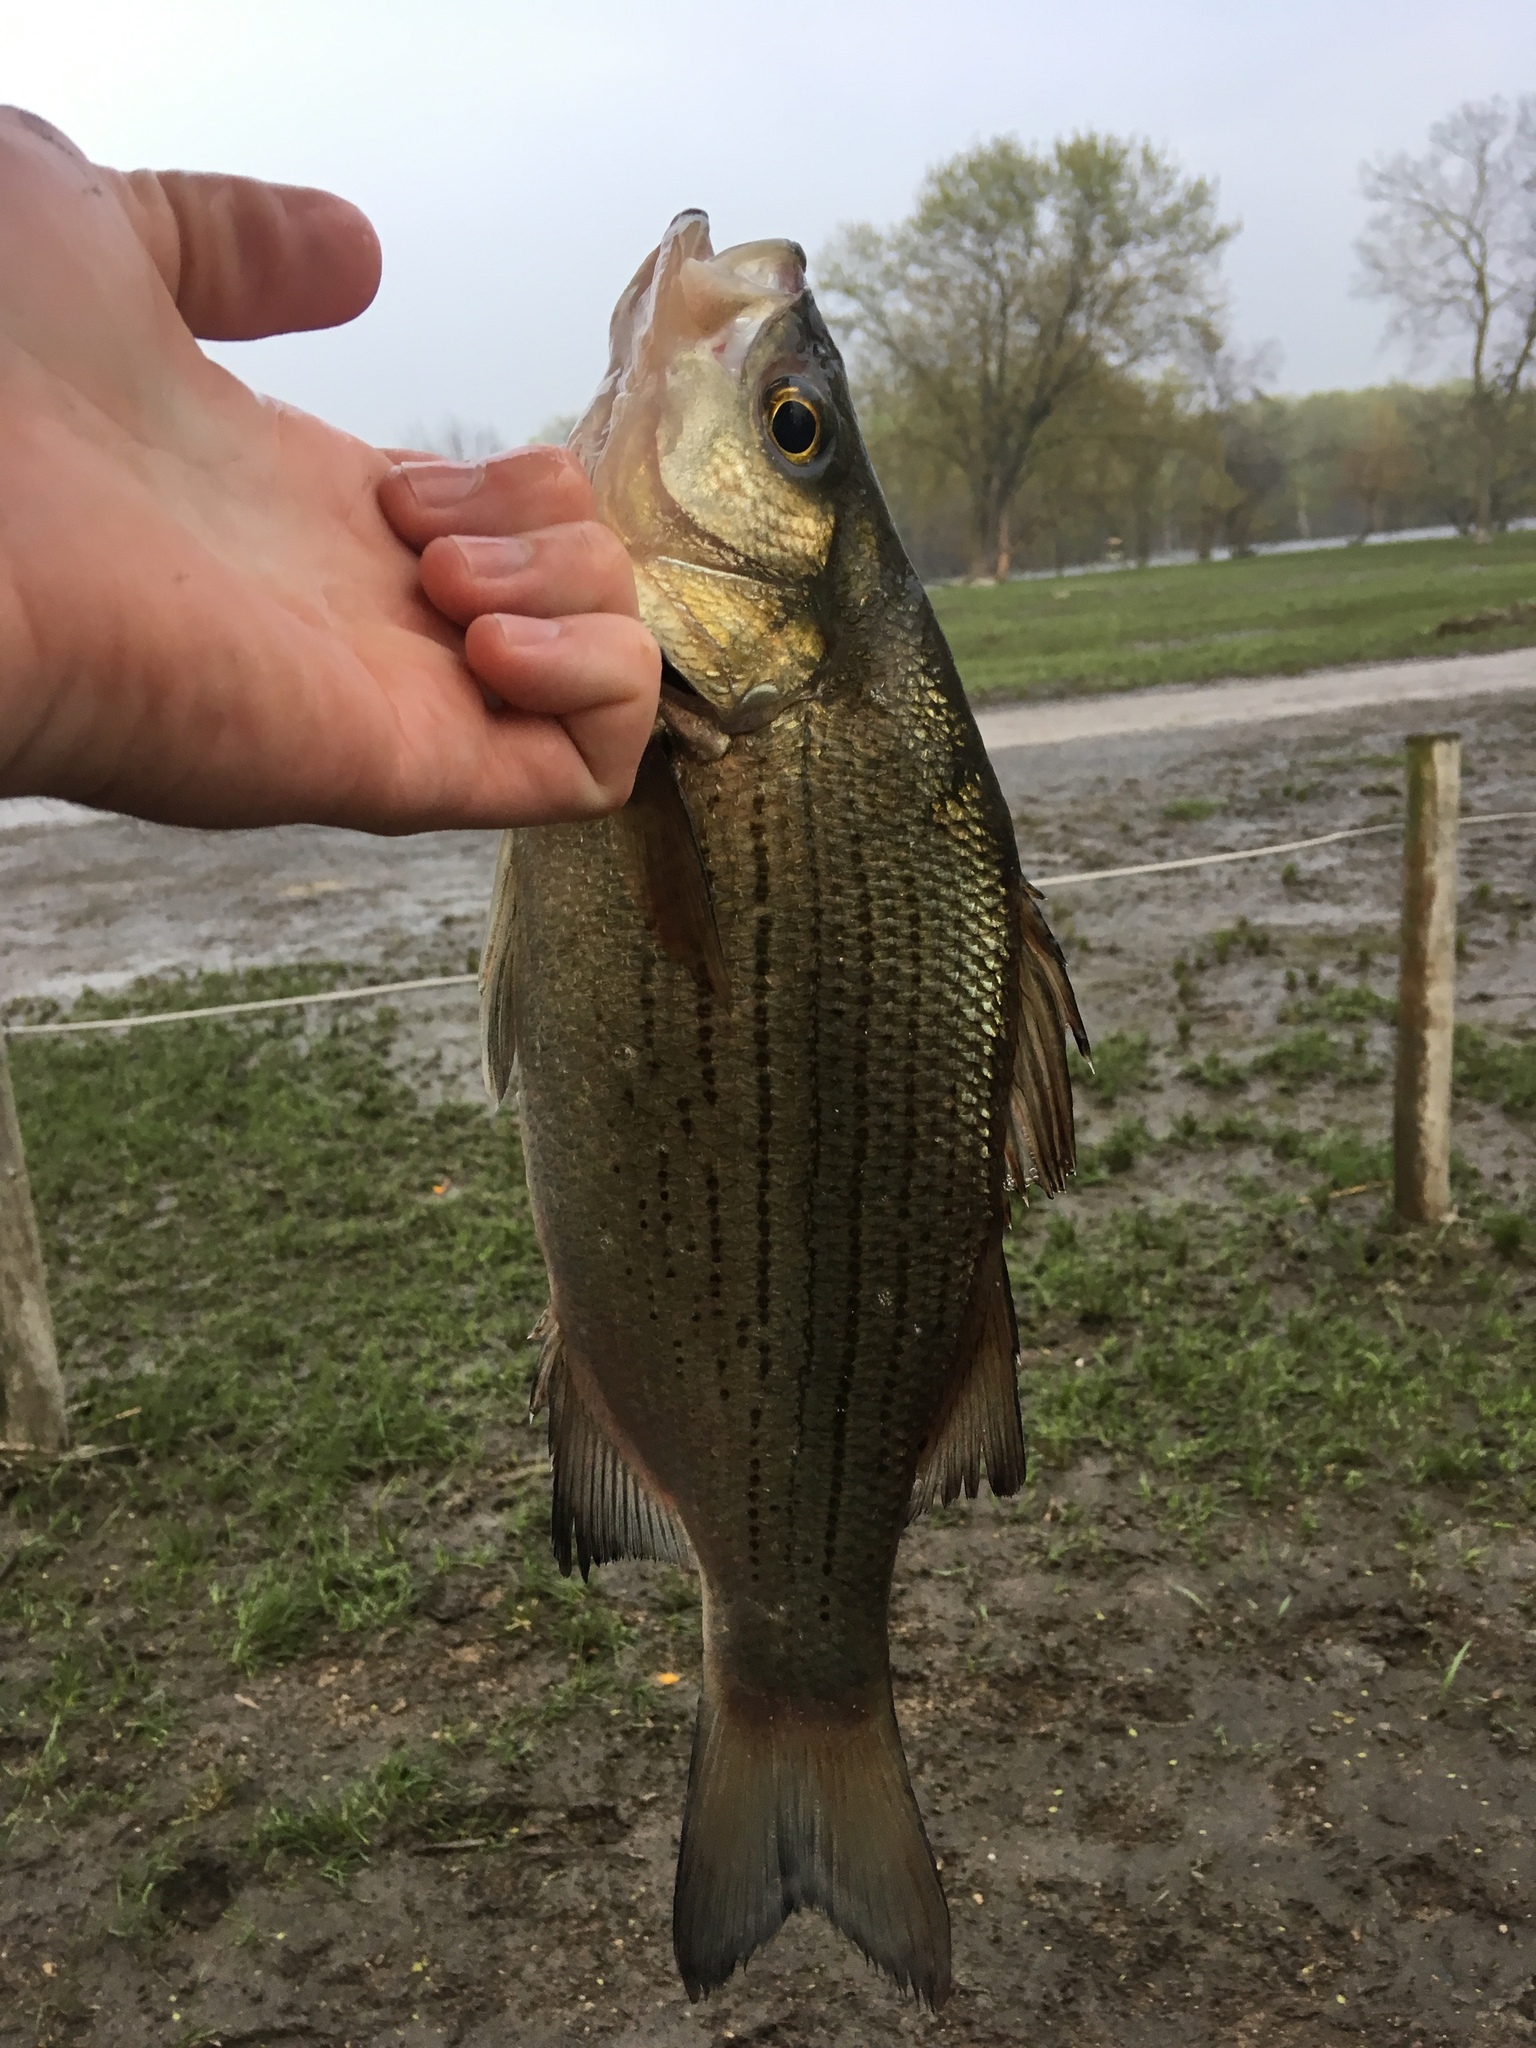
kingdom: Animalia
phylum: Chordata
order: Perciformes
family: Moronidae
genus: Morone
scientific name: Morone chrysops
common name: White bass
